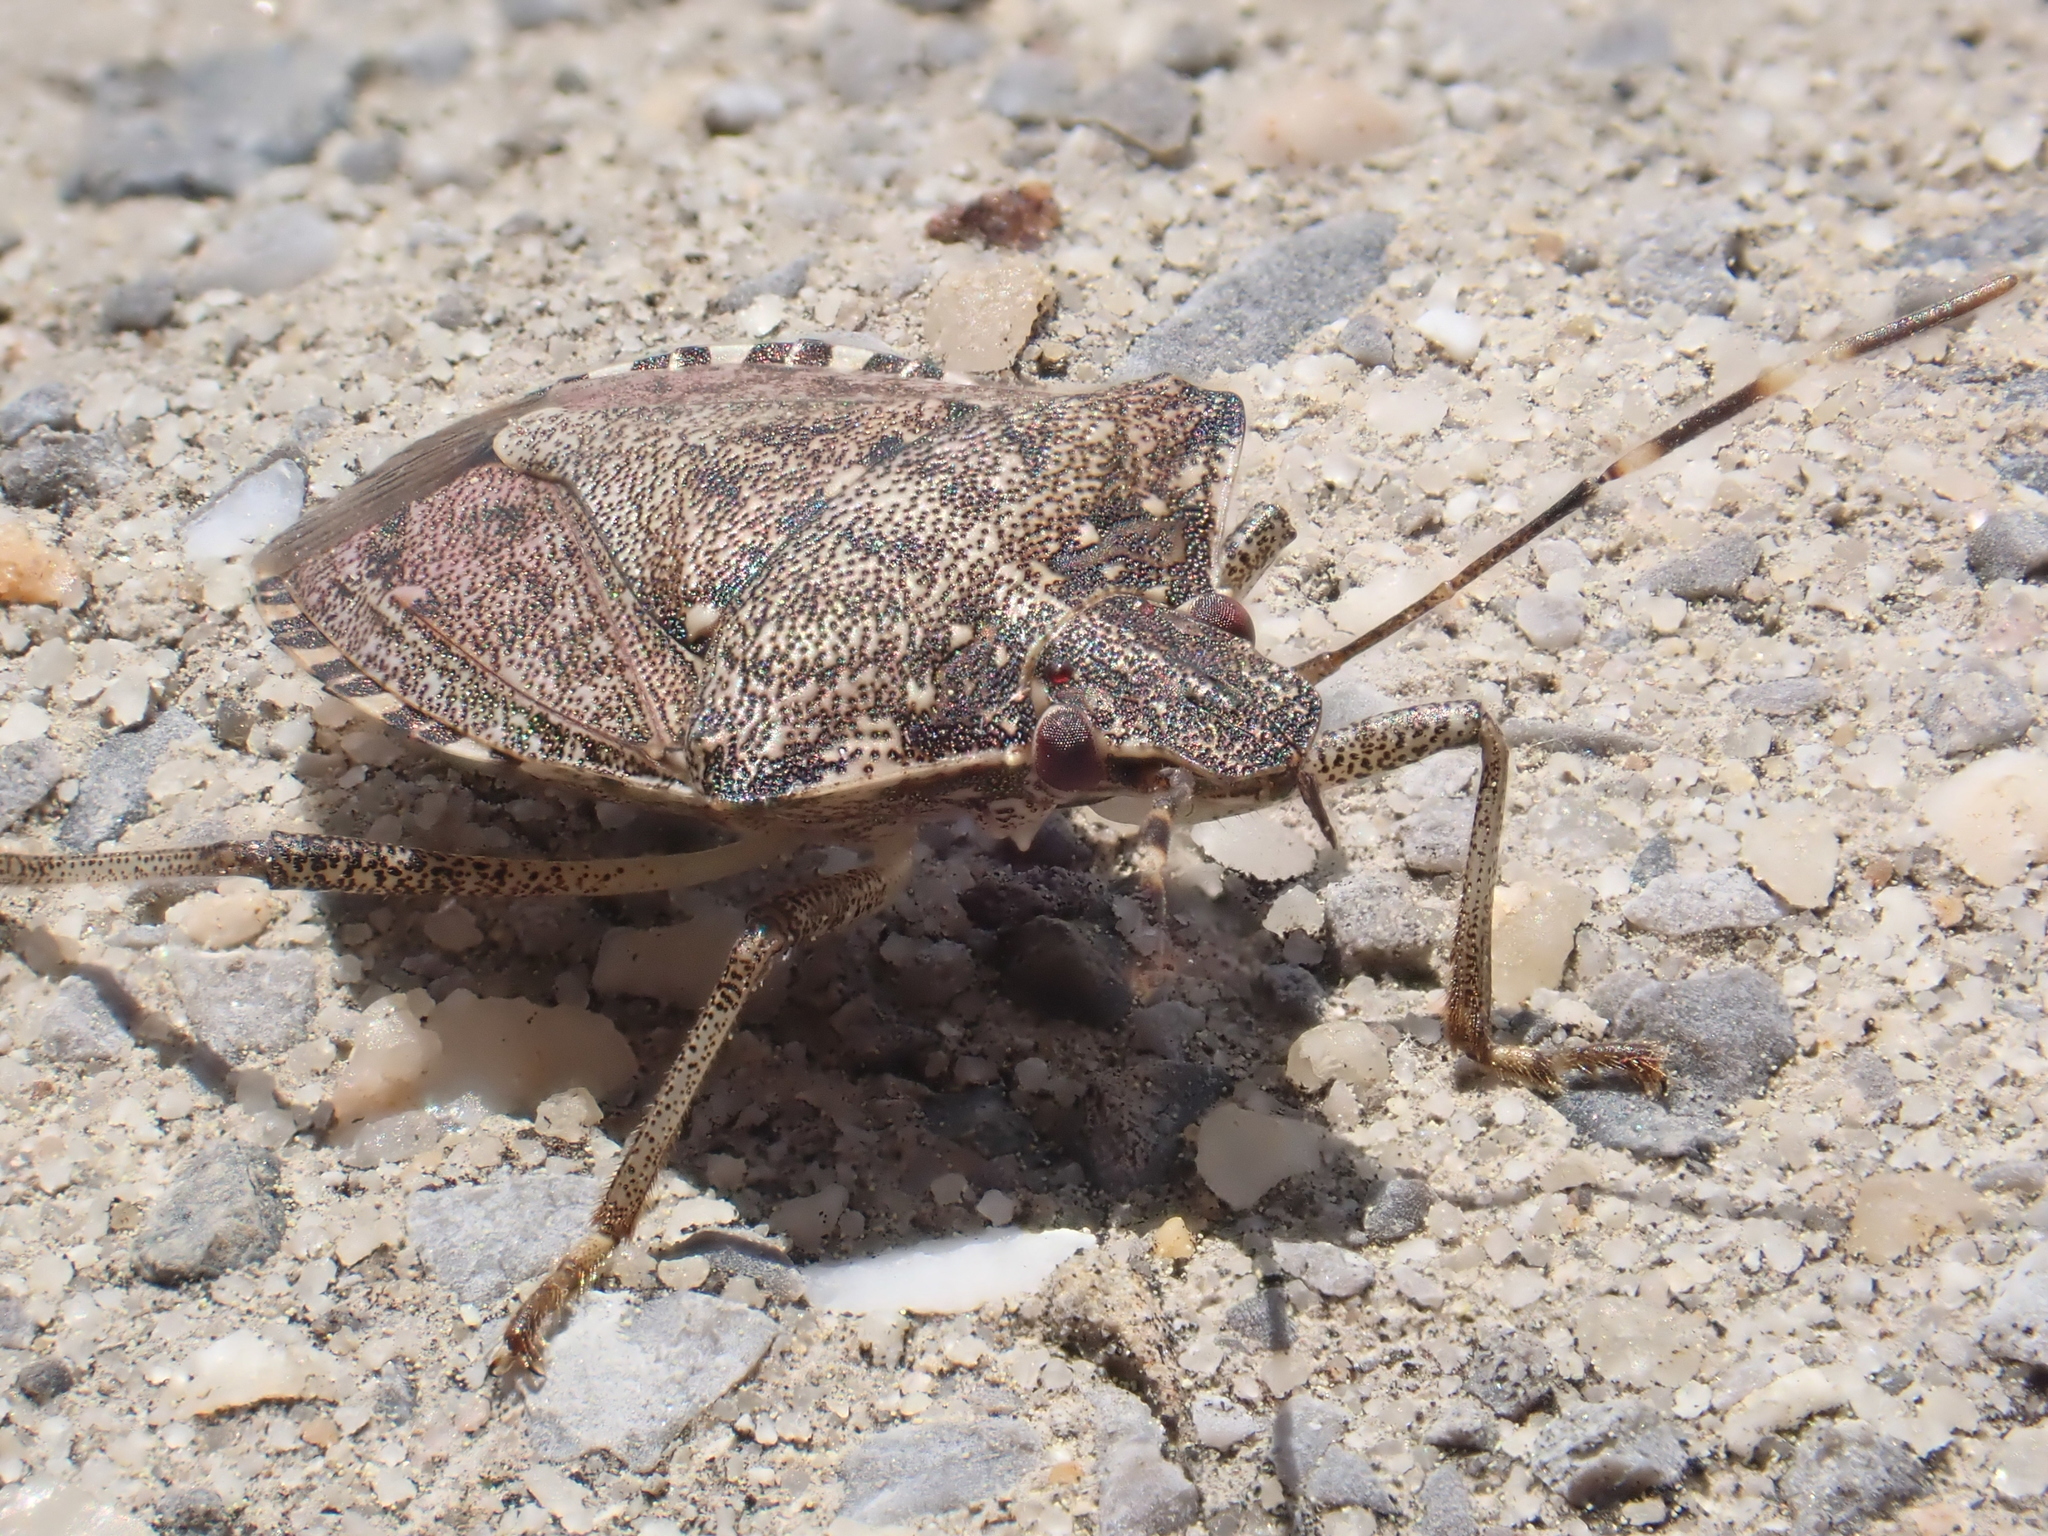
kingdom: Animalia
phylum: Arthropoda
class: Insecta
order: Hemiptera
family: Pentatomidae
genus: Halyomorpha
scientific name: Halyomorpha halys
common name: Brown marmorated stink bug
